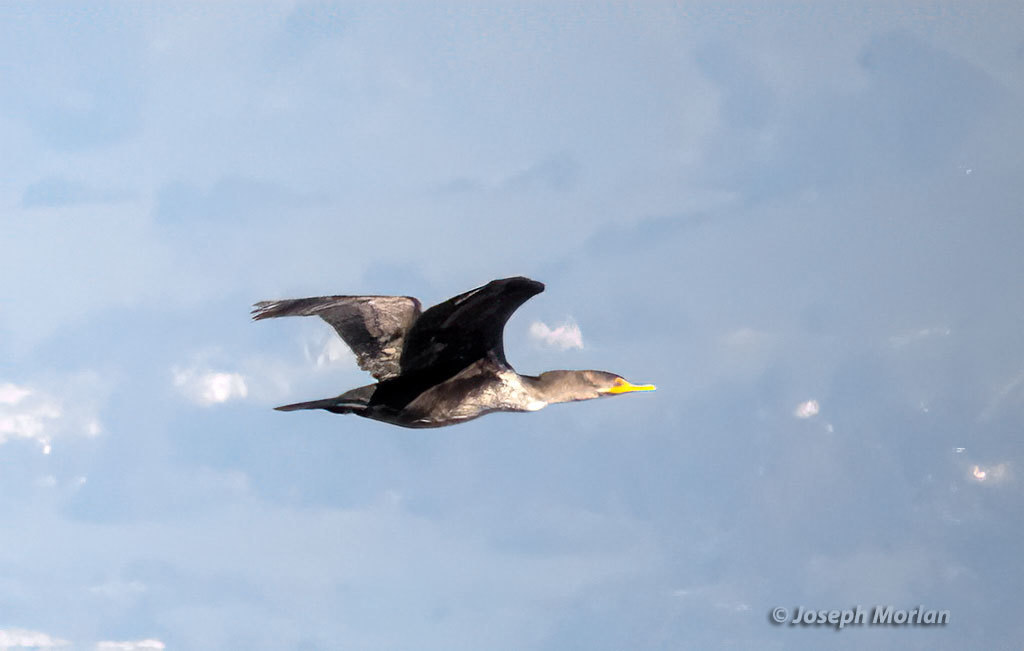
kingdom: Animalia
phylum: Chordata
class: Aves
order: Suliformes
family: Phalacrocoracidae
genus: Phalacrocorax
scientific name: Phalacrocorax auritus
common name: Double-crested cormorant
